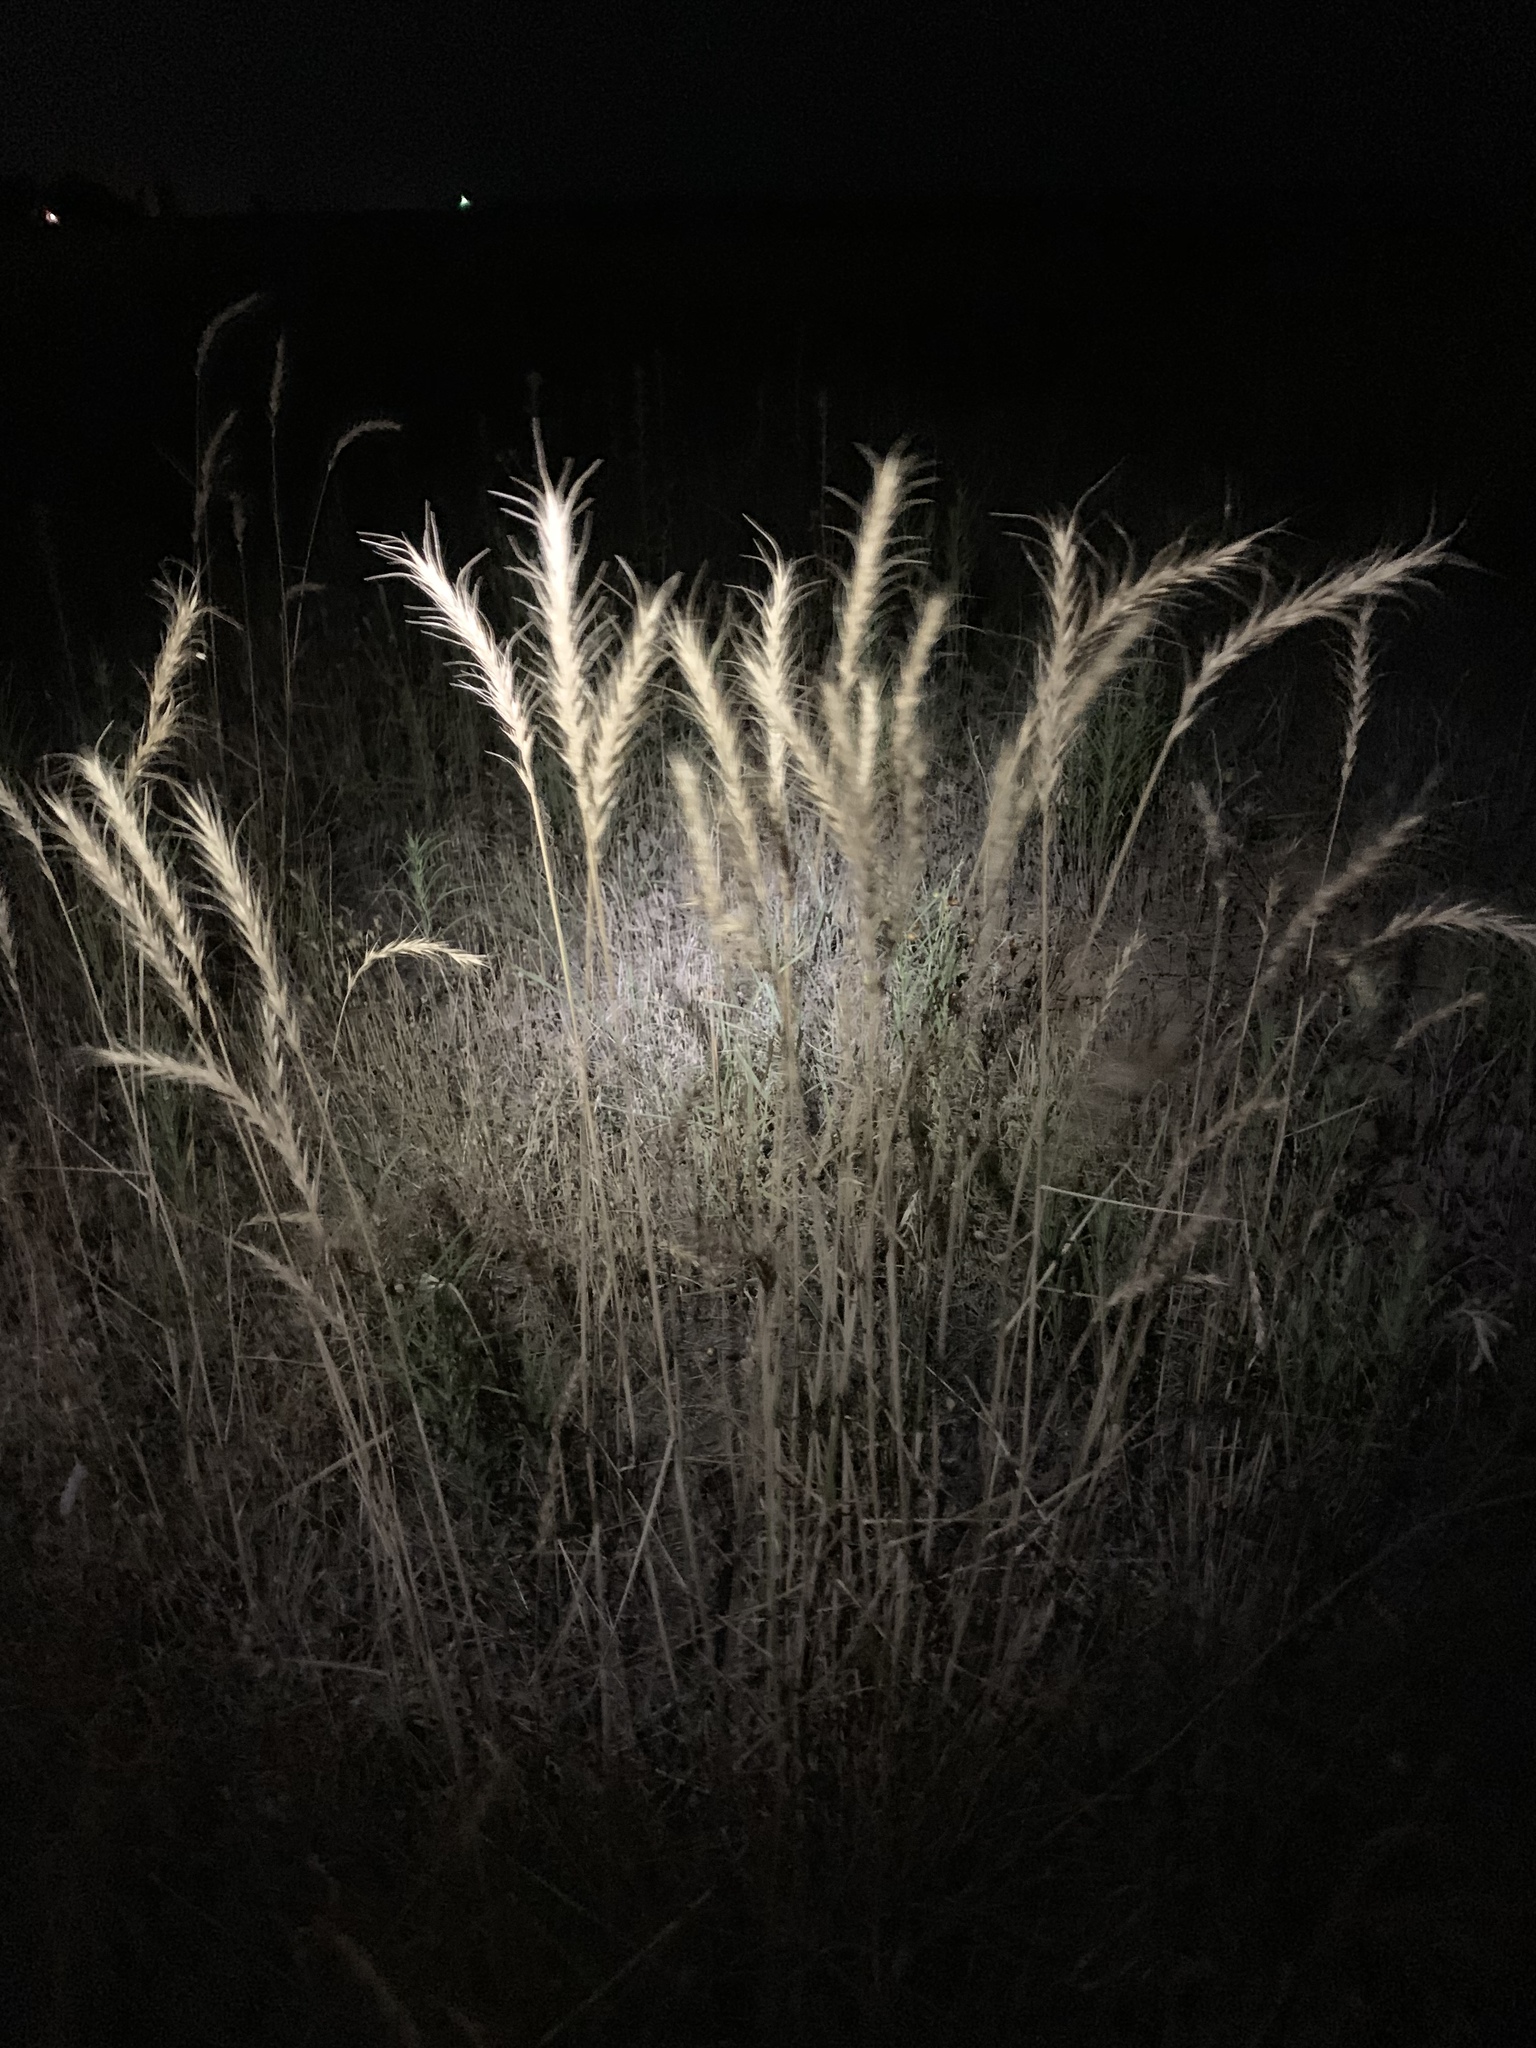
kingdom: Plantae
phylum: Tracheophyta
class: Liliopsida
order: Poales
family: Poaceae
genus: Elymus
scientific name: Elymus canadensis
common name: Canada wild rye
